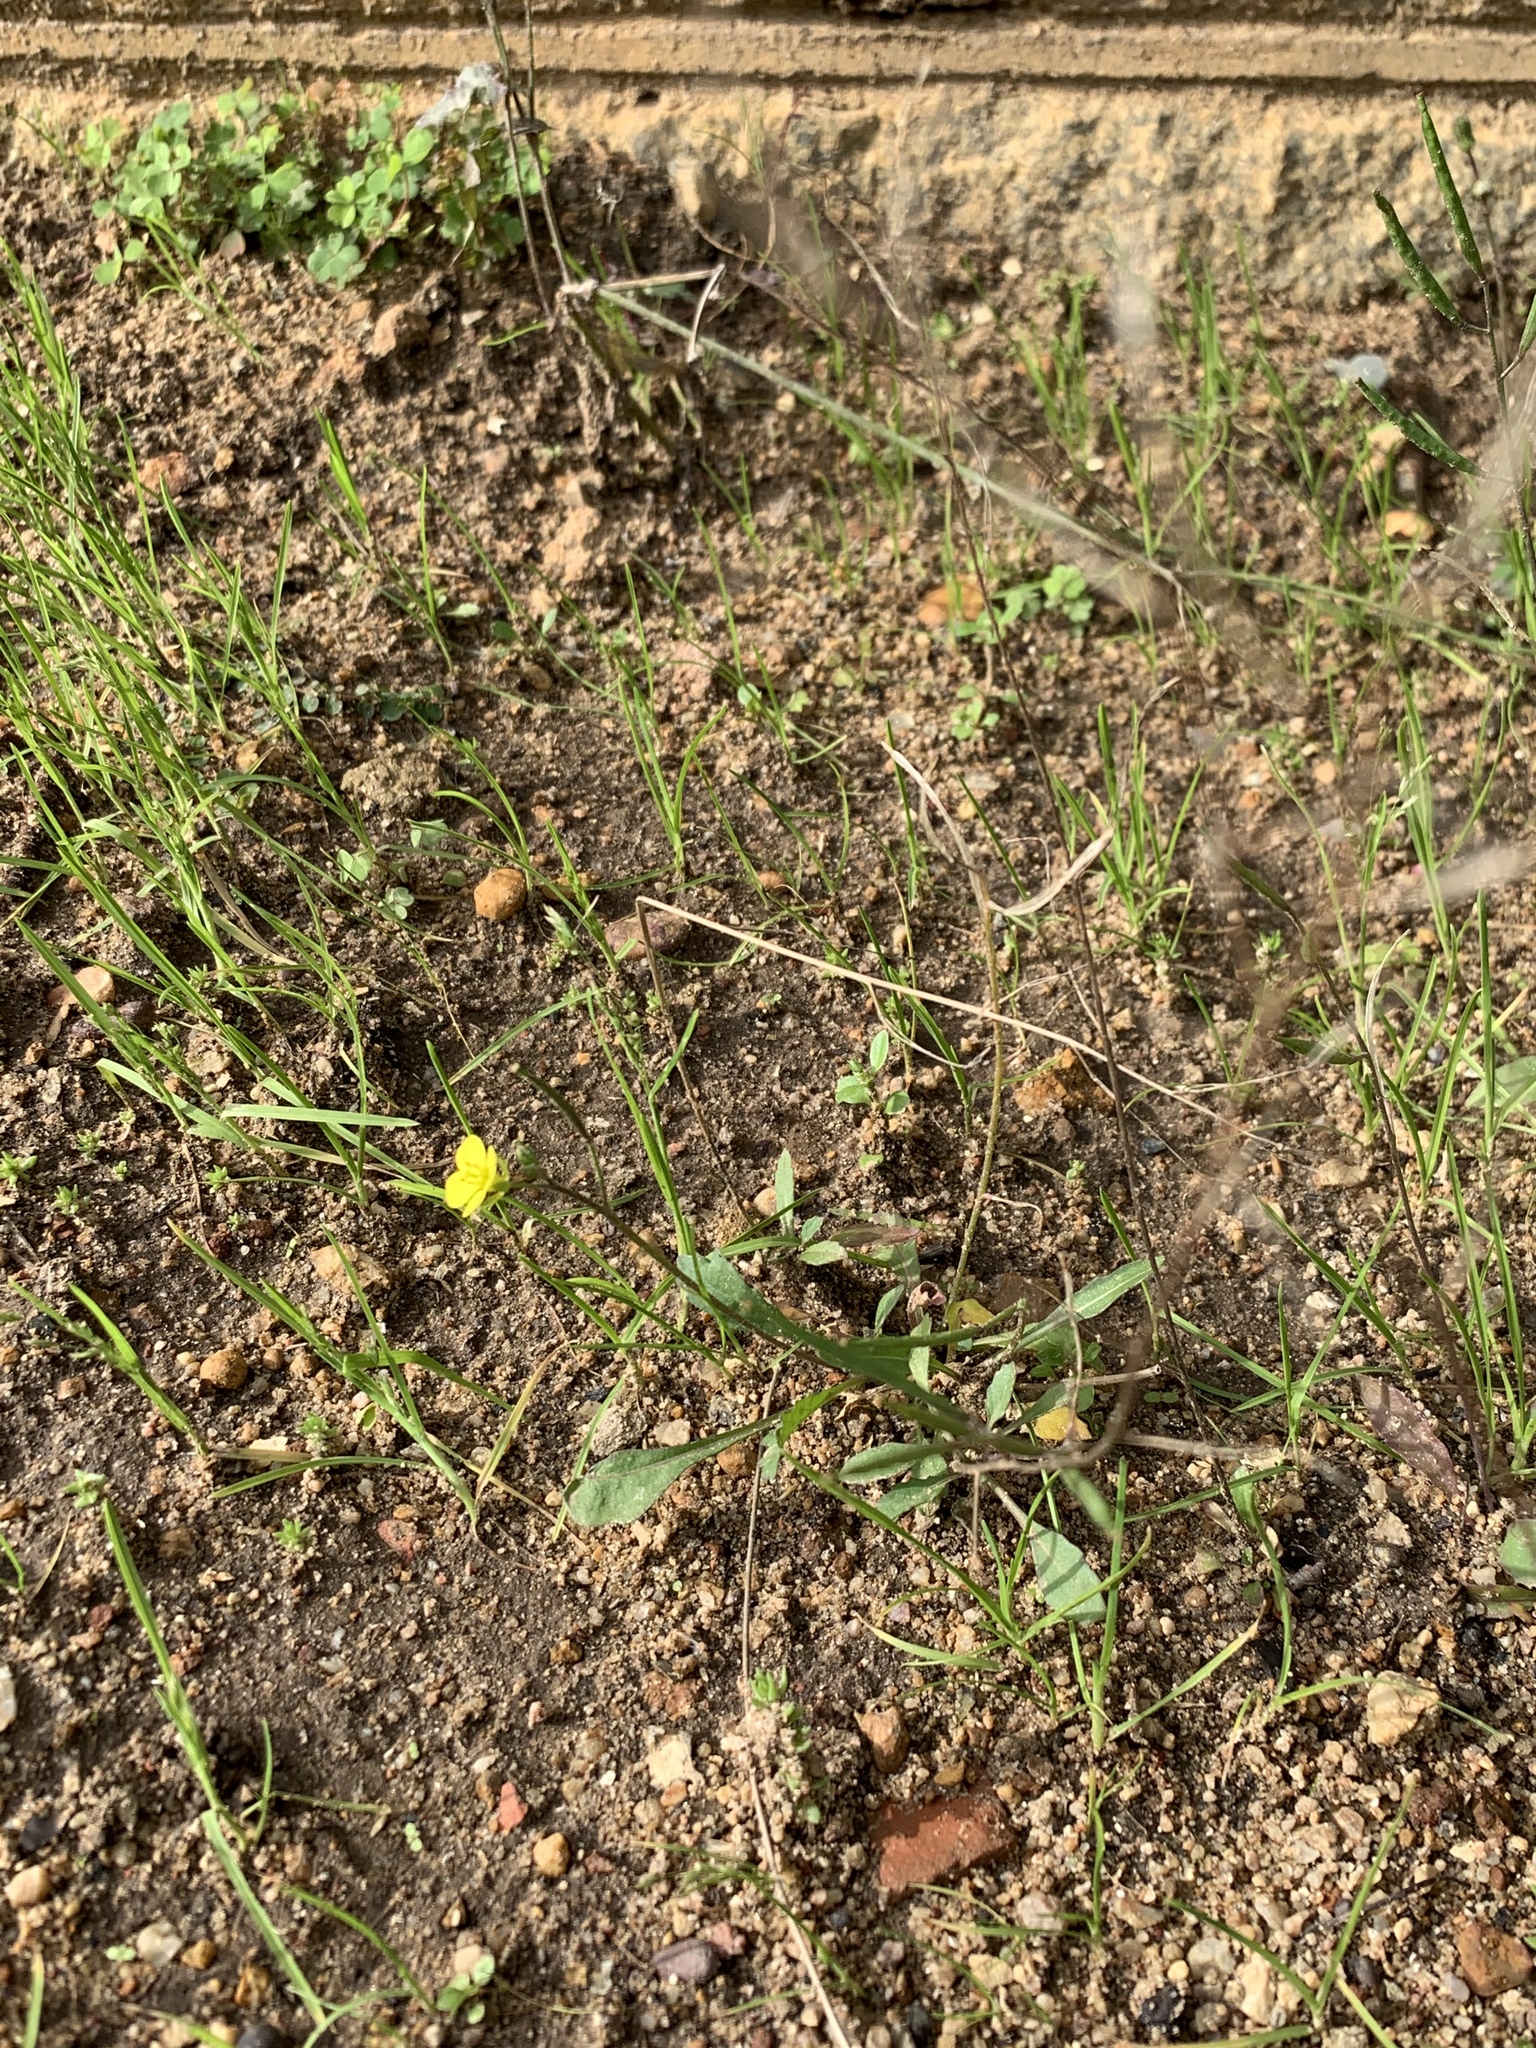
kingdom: Plantae
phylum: Tracheophyta
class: Magnoliopsida
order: Brassicales
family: Brassicaceae
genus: Diplotaxis
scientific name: Diplotaxis muralis
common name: Annual wall-rocket
